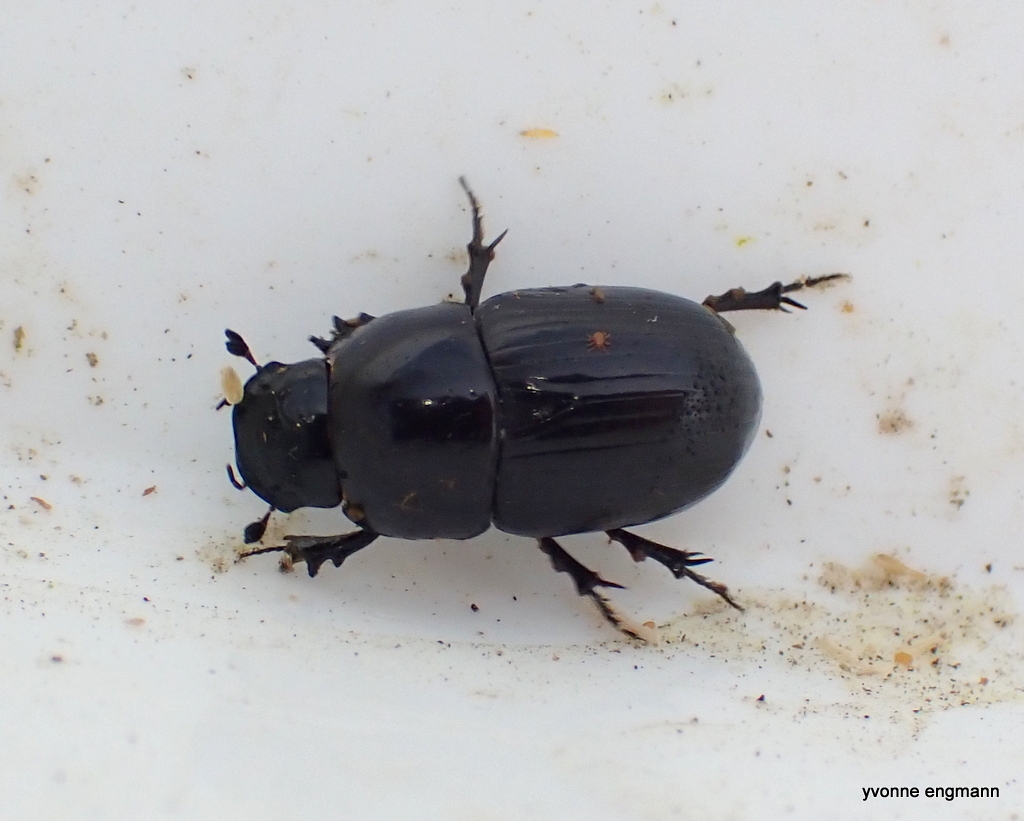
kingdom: Animalia
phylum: Arthropoda
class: Insecta
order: Coleoptera
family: Scarabaeidae
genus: Teuchestes
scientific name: Teuchestes fossor
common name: Digger small dung beetle
